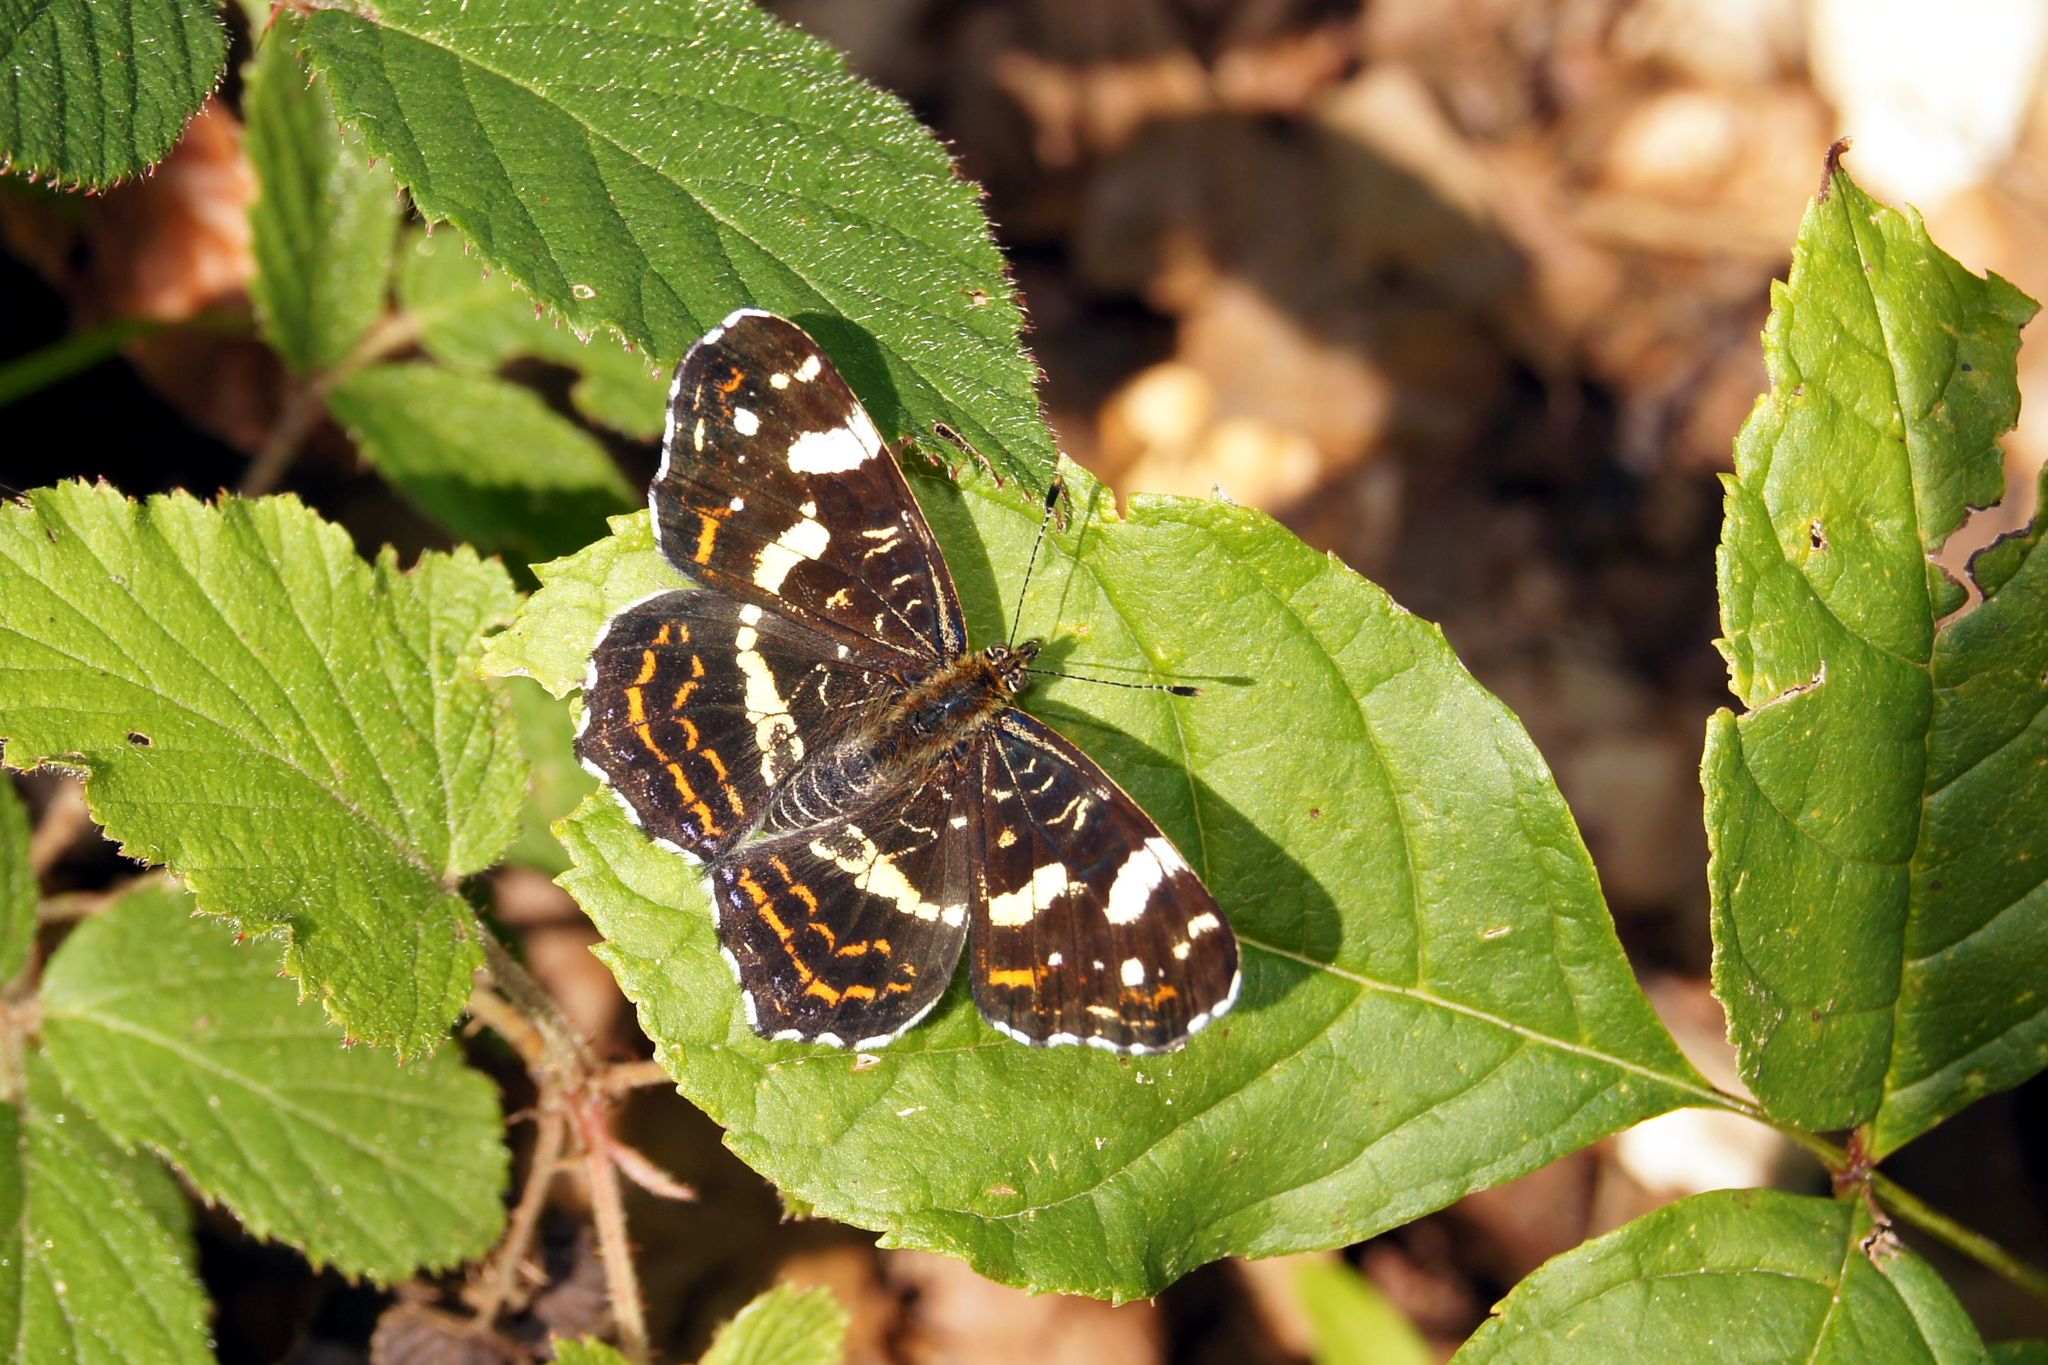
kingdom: Animalia
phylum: Arthropoda
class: Insecta
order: Lepidoptera
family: Nymphalidae
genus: Araschnia
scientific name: Araschnia levana
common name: Map butterfly
